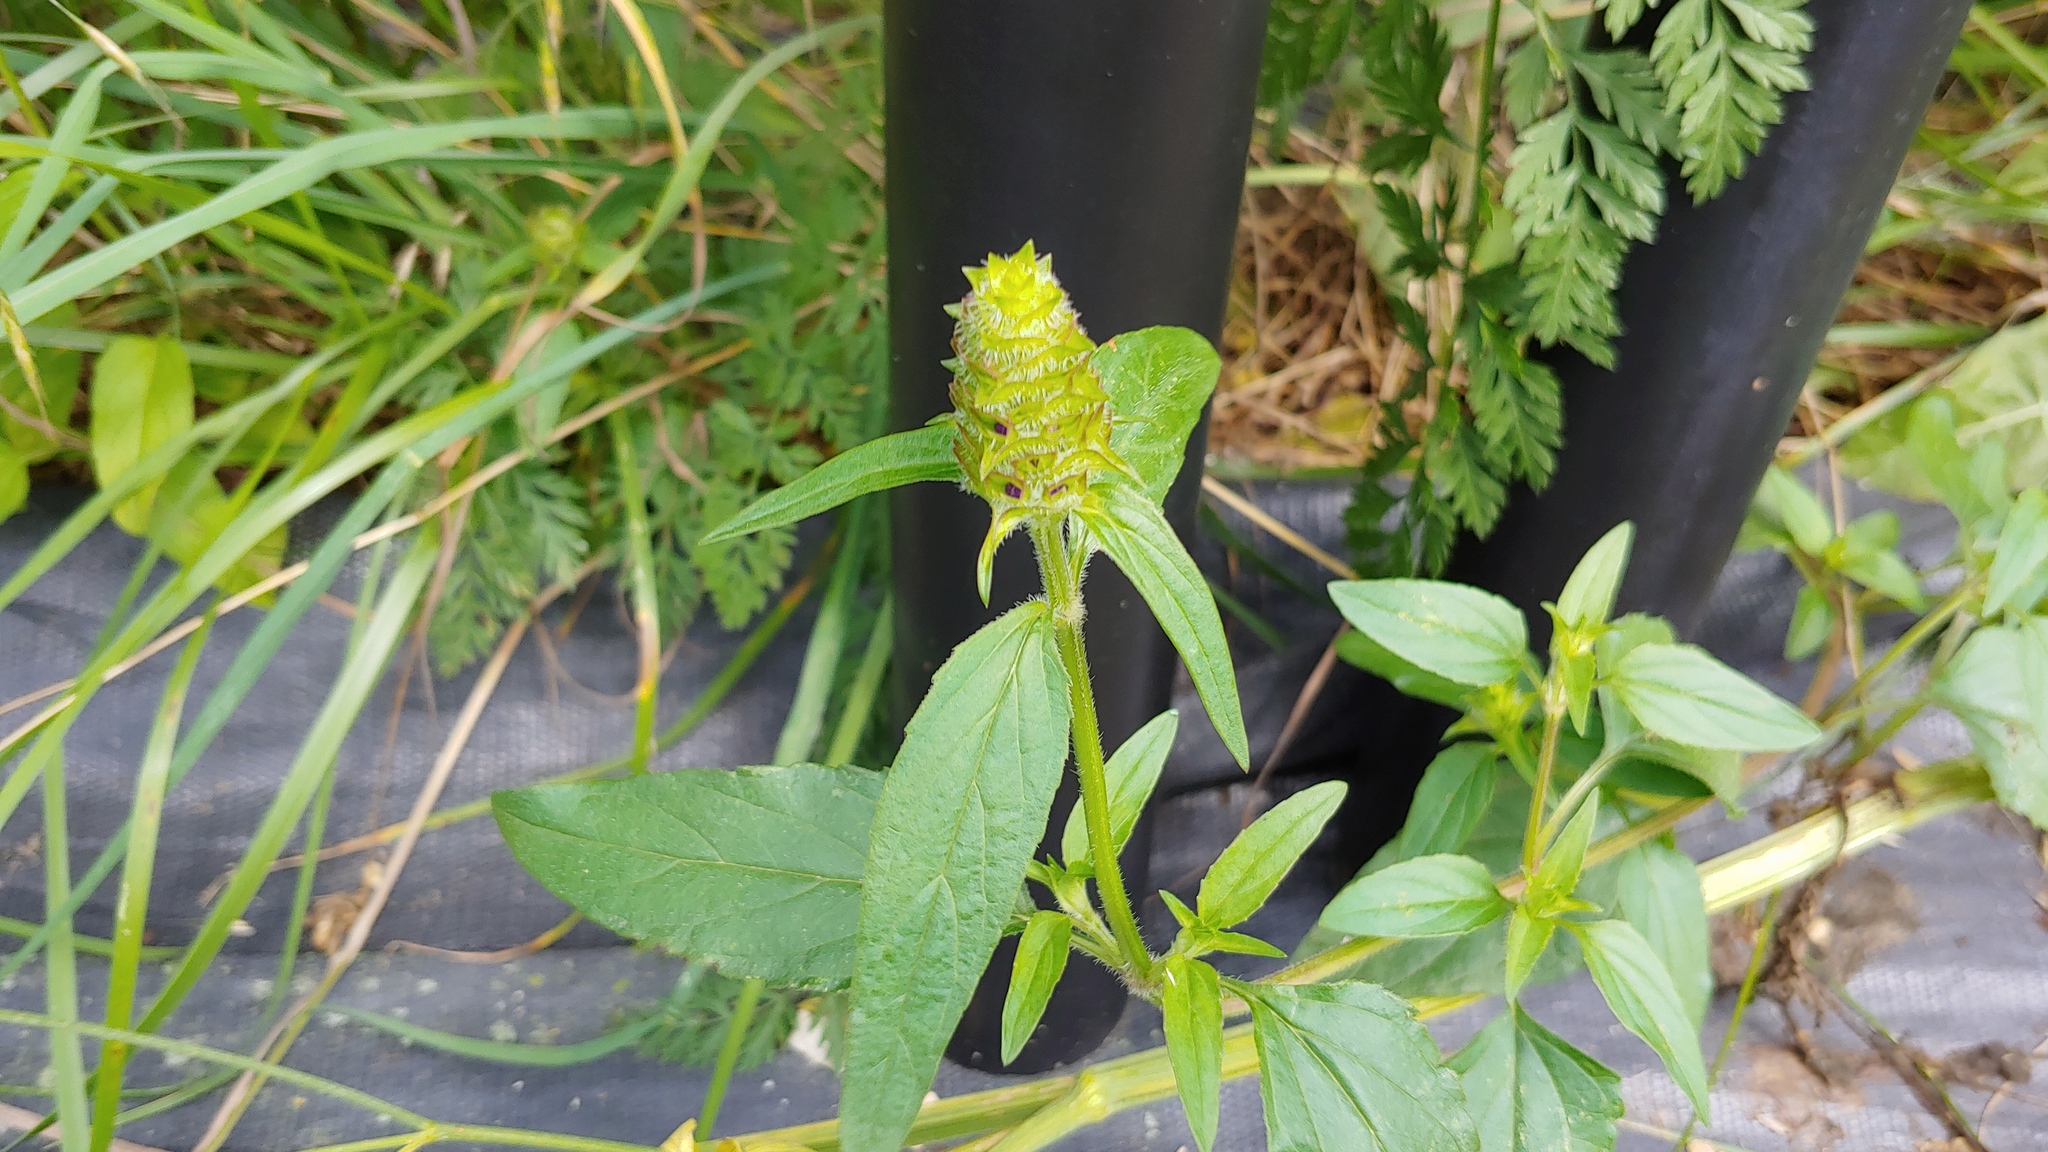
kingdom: Plantae
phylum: Tracheophyta
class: Magnoliopsida
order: Lamiales
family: Lamiaceae
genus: Prunella
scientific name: Prunella vulgaris
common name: Heal-all
